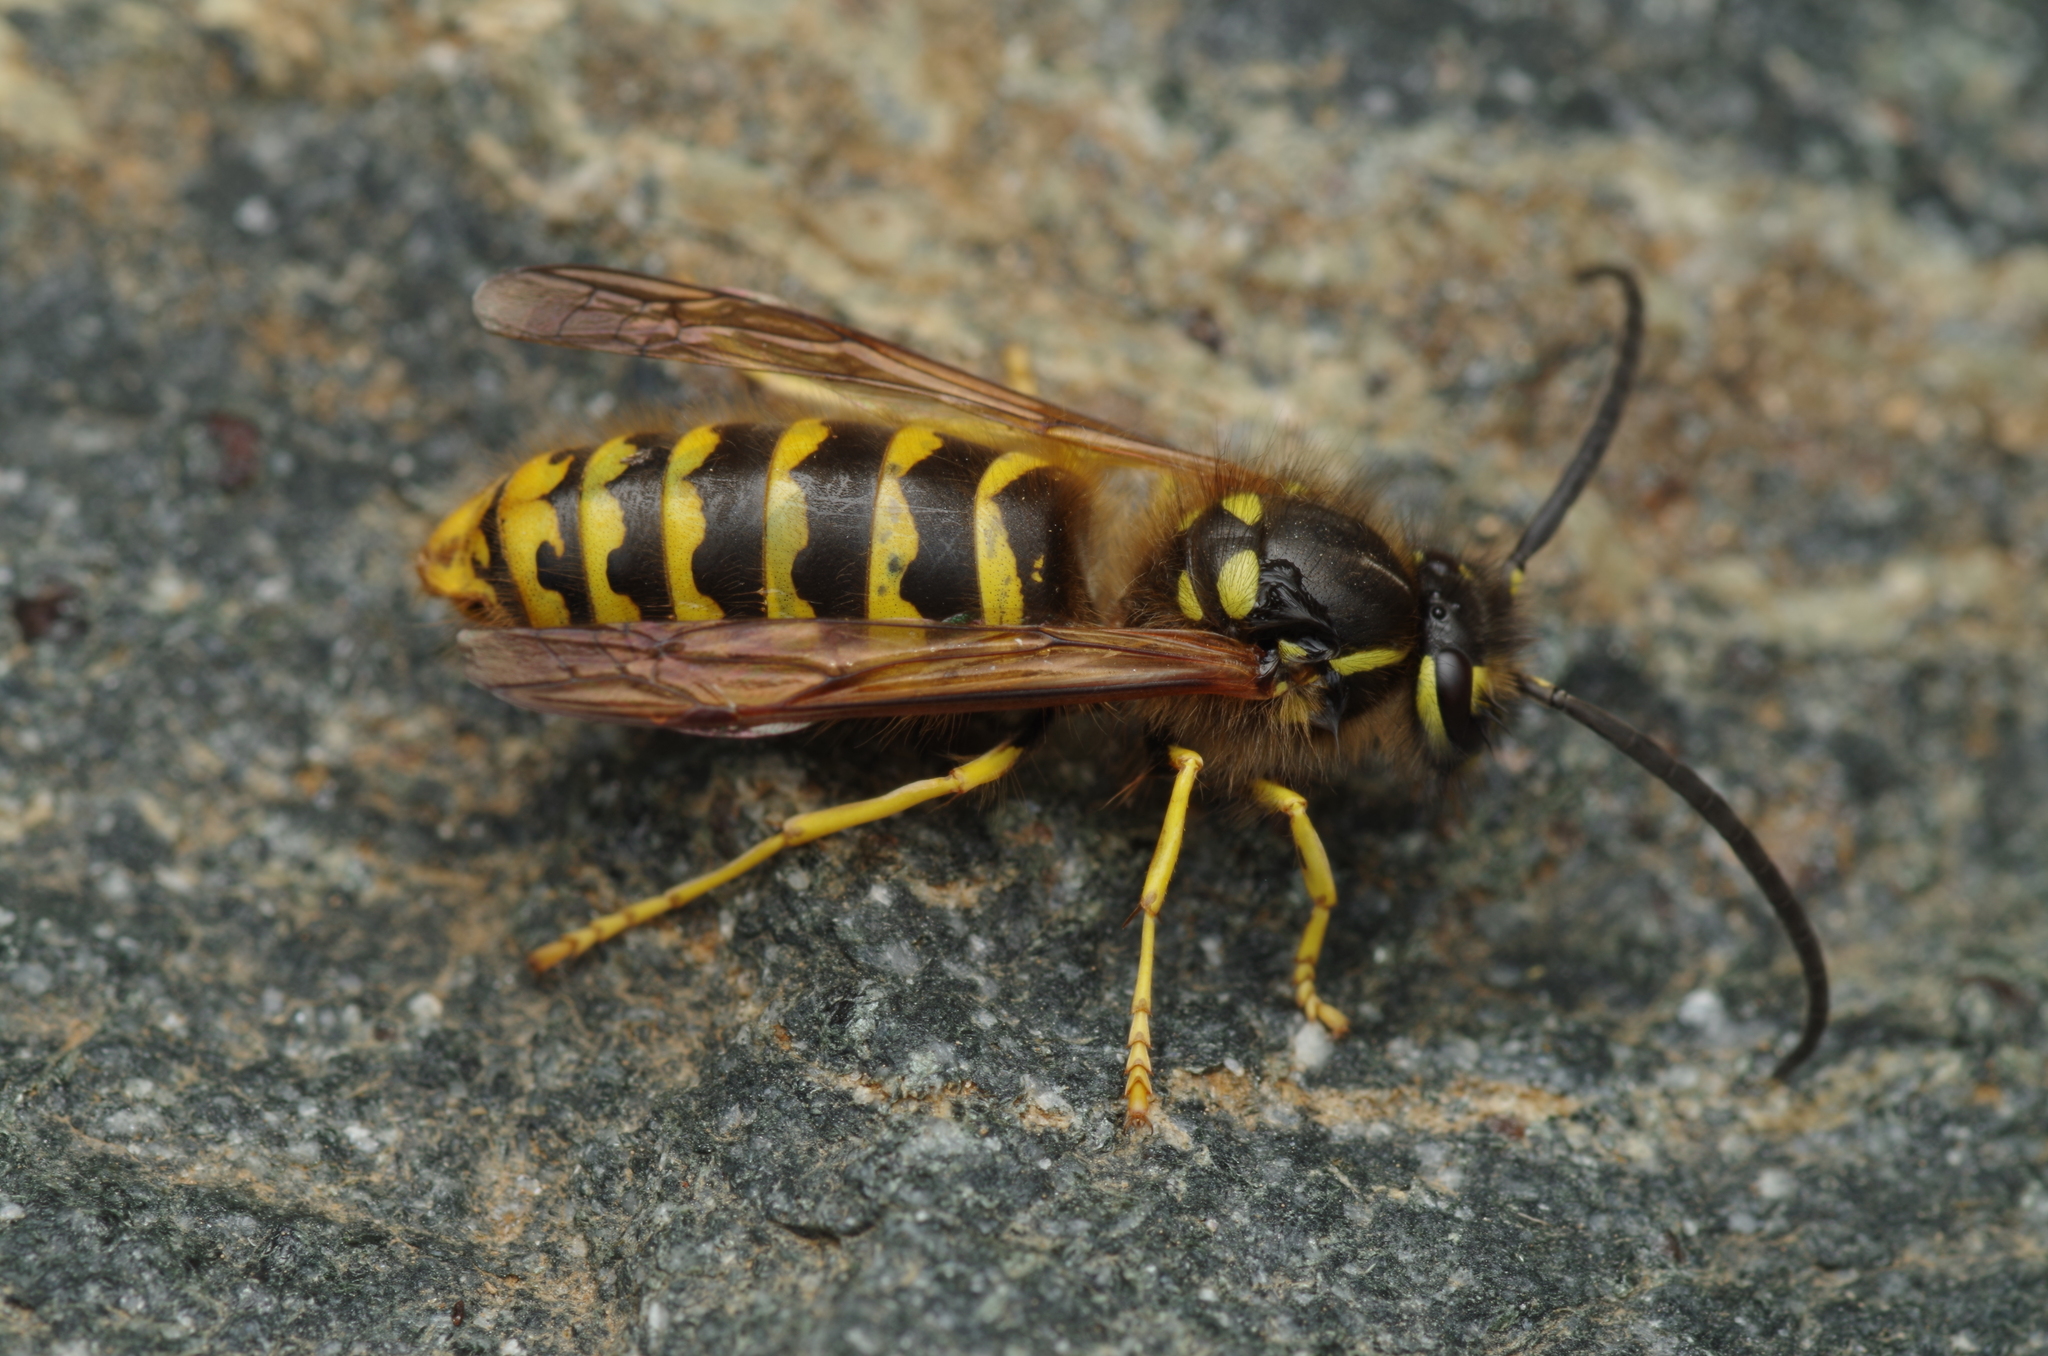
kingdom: Animalia
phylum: Arthropoda
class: Insecta
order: Hymenoptera
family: Vespidae
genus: Vespula
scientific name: Vespula vulgaris
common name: Common wasp
